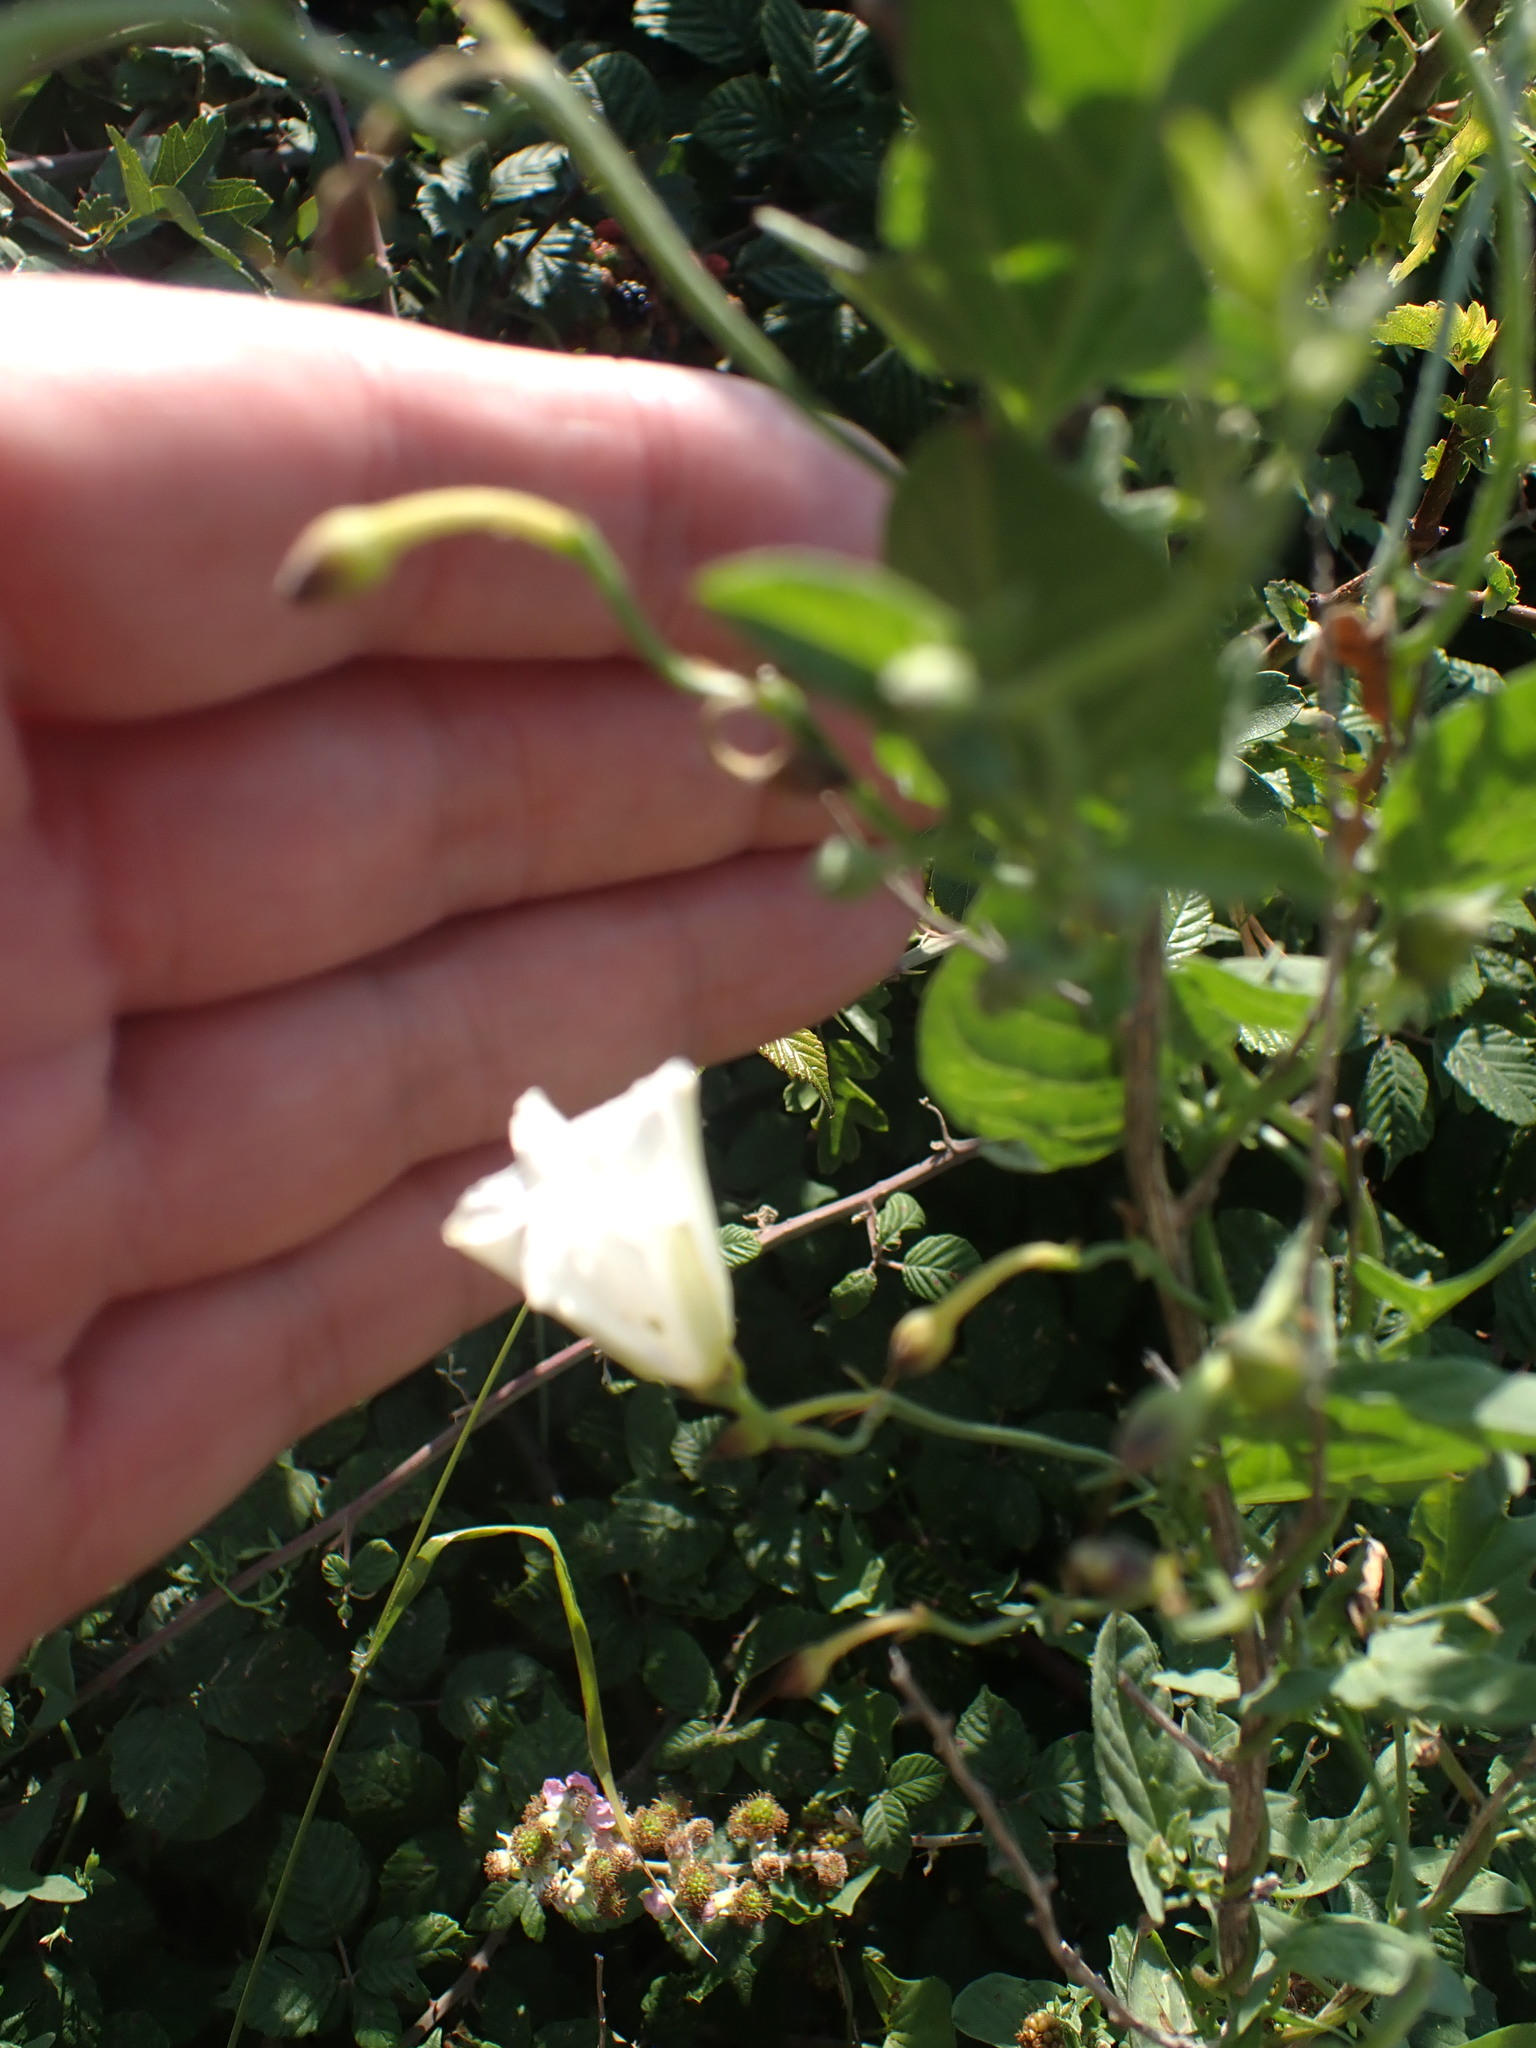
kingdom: Plantae
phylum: Tracheophyta
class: Magnoliopsida
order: Solanales
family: Convolvulaceae
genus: Convolvulus
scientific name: Convolvulus arvensis
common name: Field bindweed
